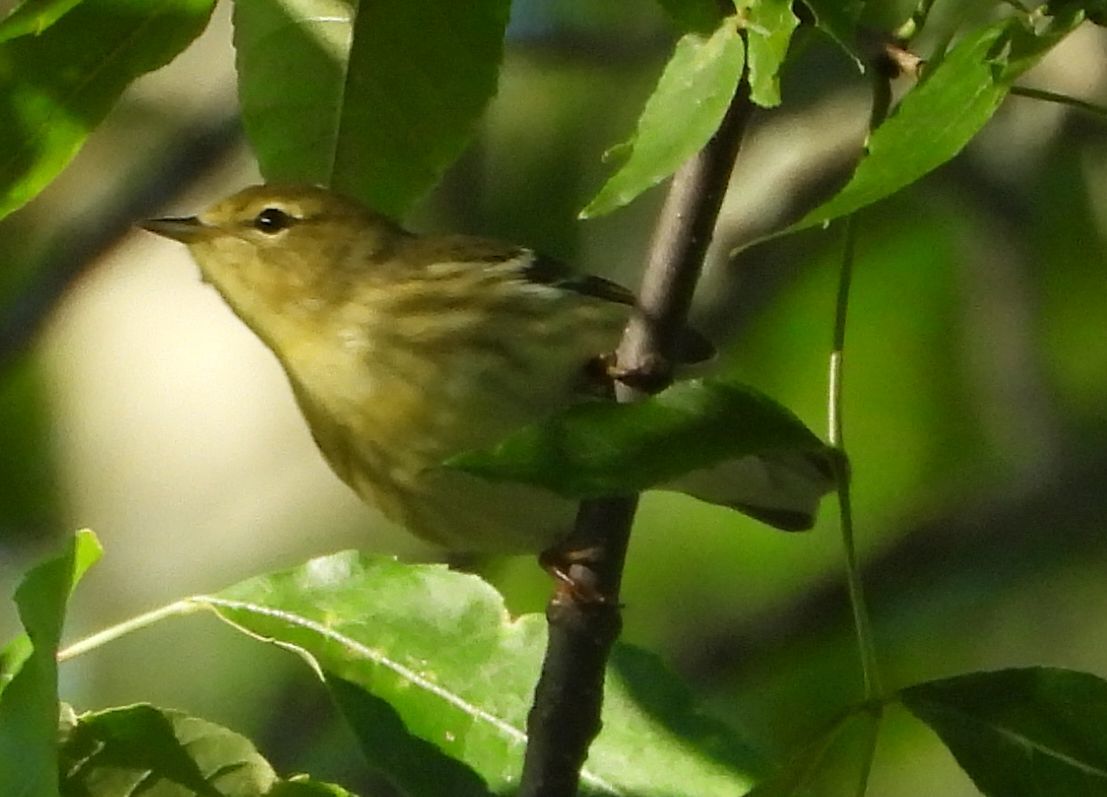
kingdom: Animalia
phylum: Chordata
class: Aves
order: Passeriformes
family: Parulidae
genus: Setophaga
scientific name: Setophaga striata
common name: Blackpoll warbler
